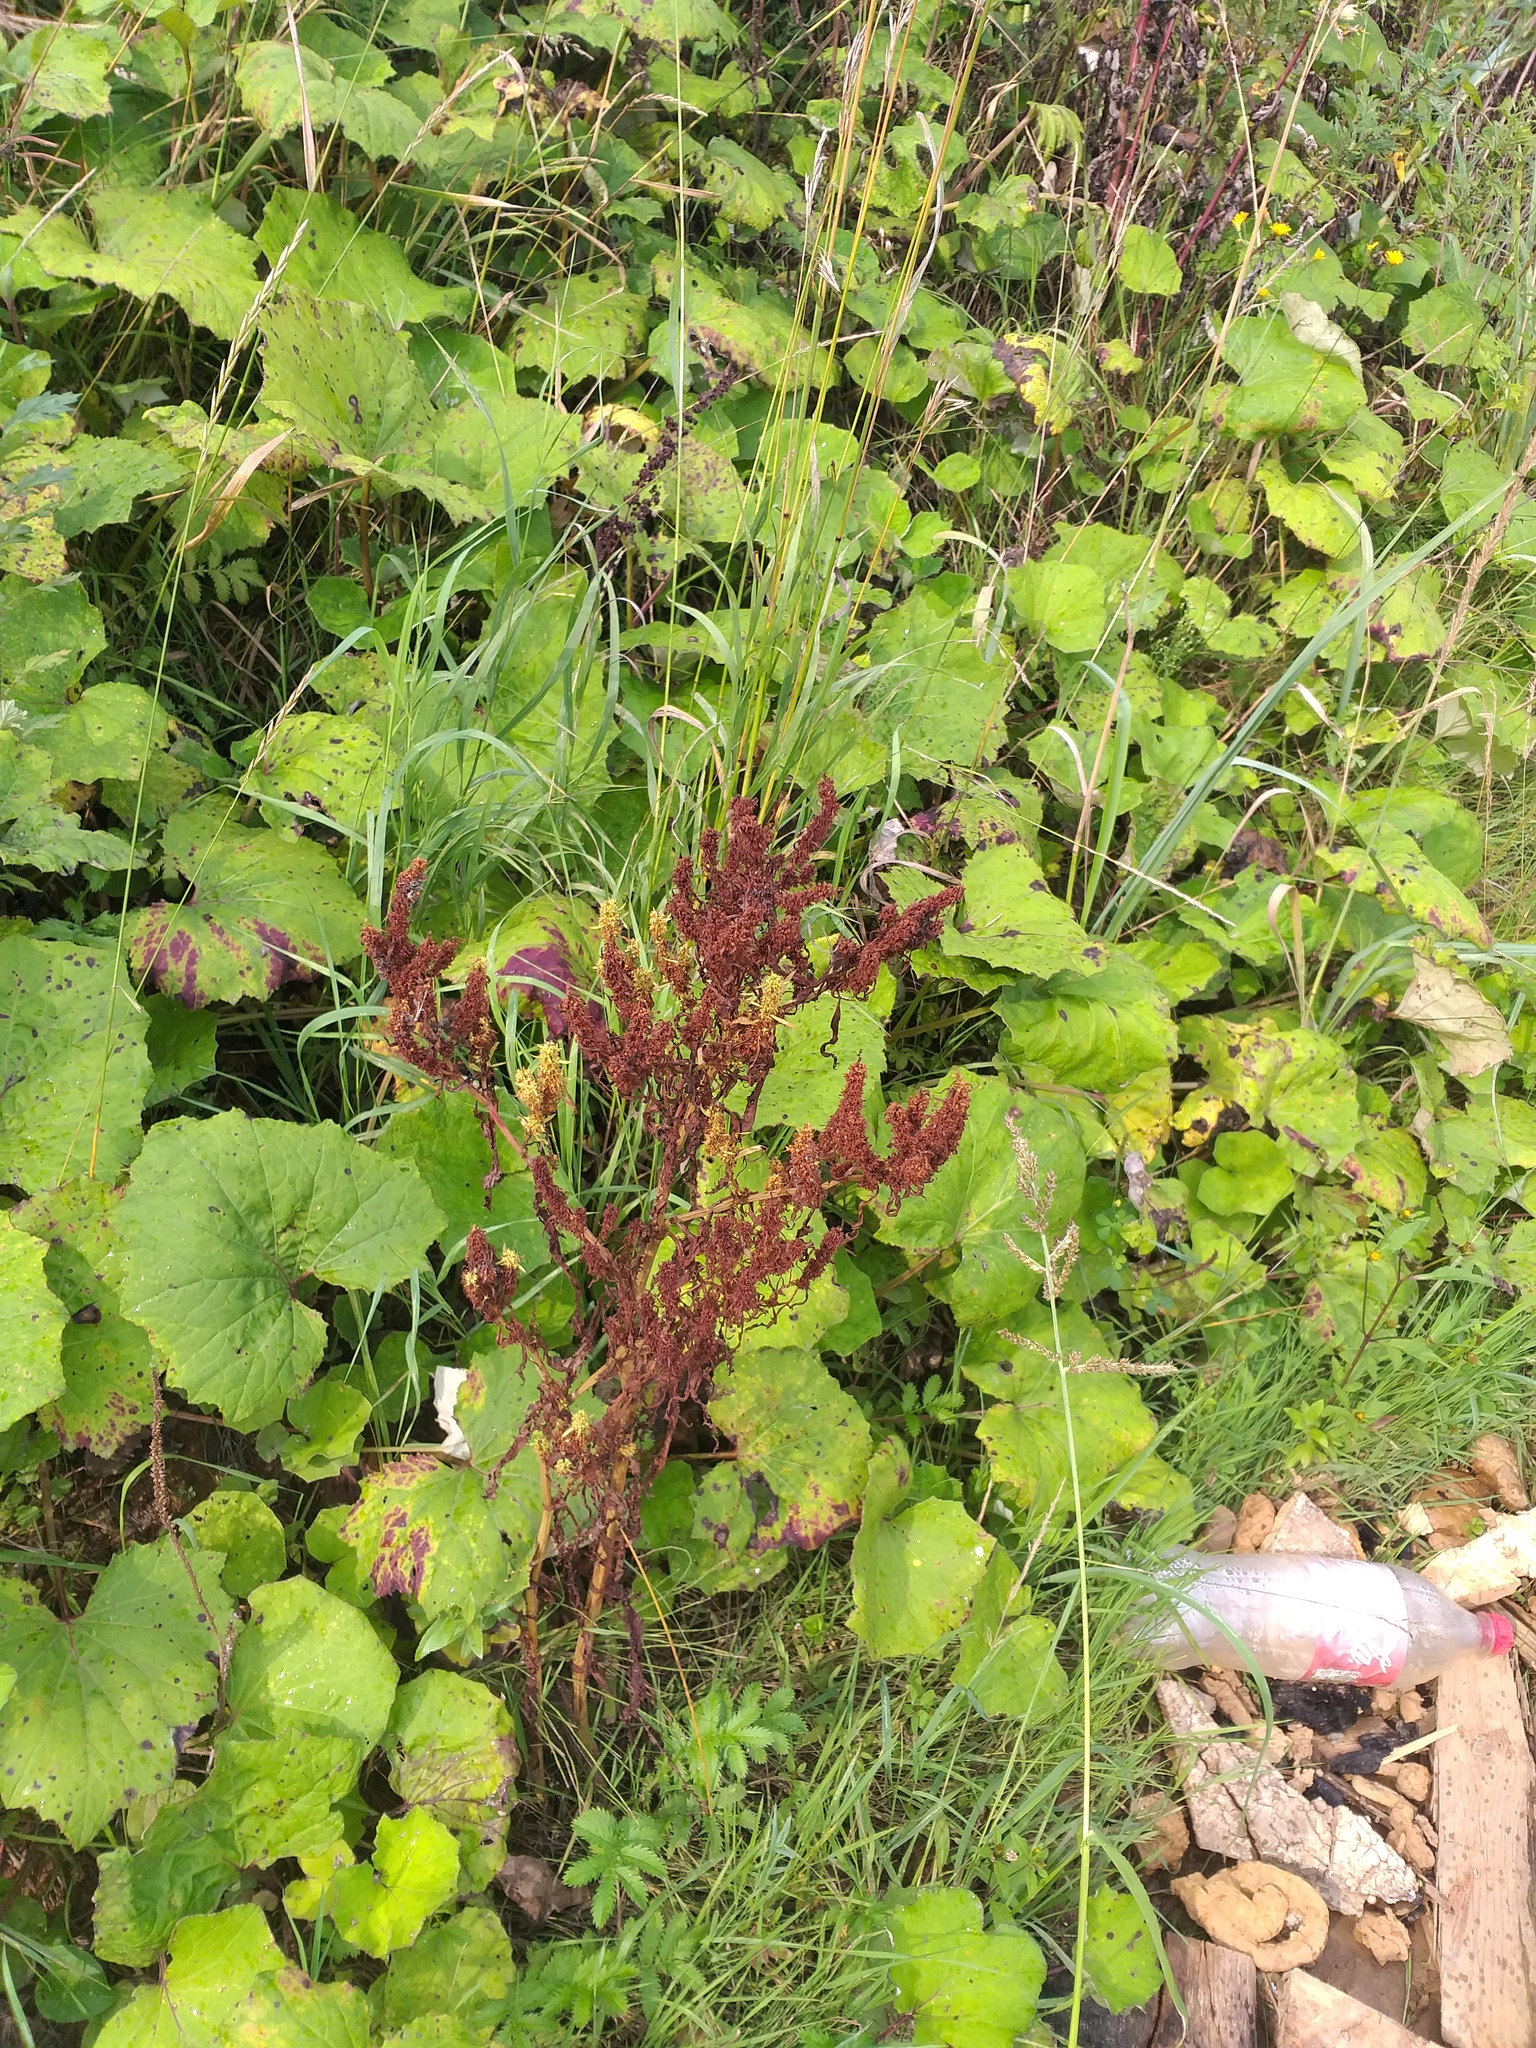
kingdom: Plantae
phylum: Tracheophyta
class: Magnoliopsida
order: Caryophyllales
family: Polygonaceae
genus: Rumex
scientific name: Rumex maritimus
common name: Golden dock
